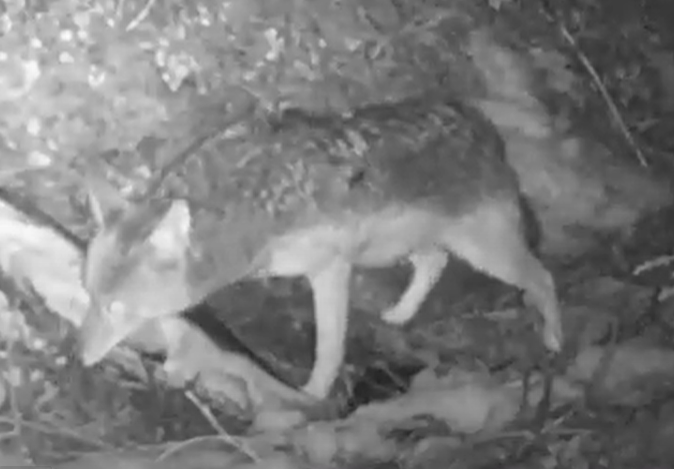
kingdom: Animalia
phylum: Chordata
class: Mammalia
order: Carnivora
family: Canidae
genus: Canis
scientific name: Canis latrans
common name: Coyote
